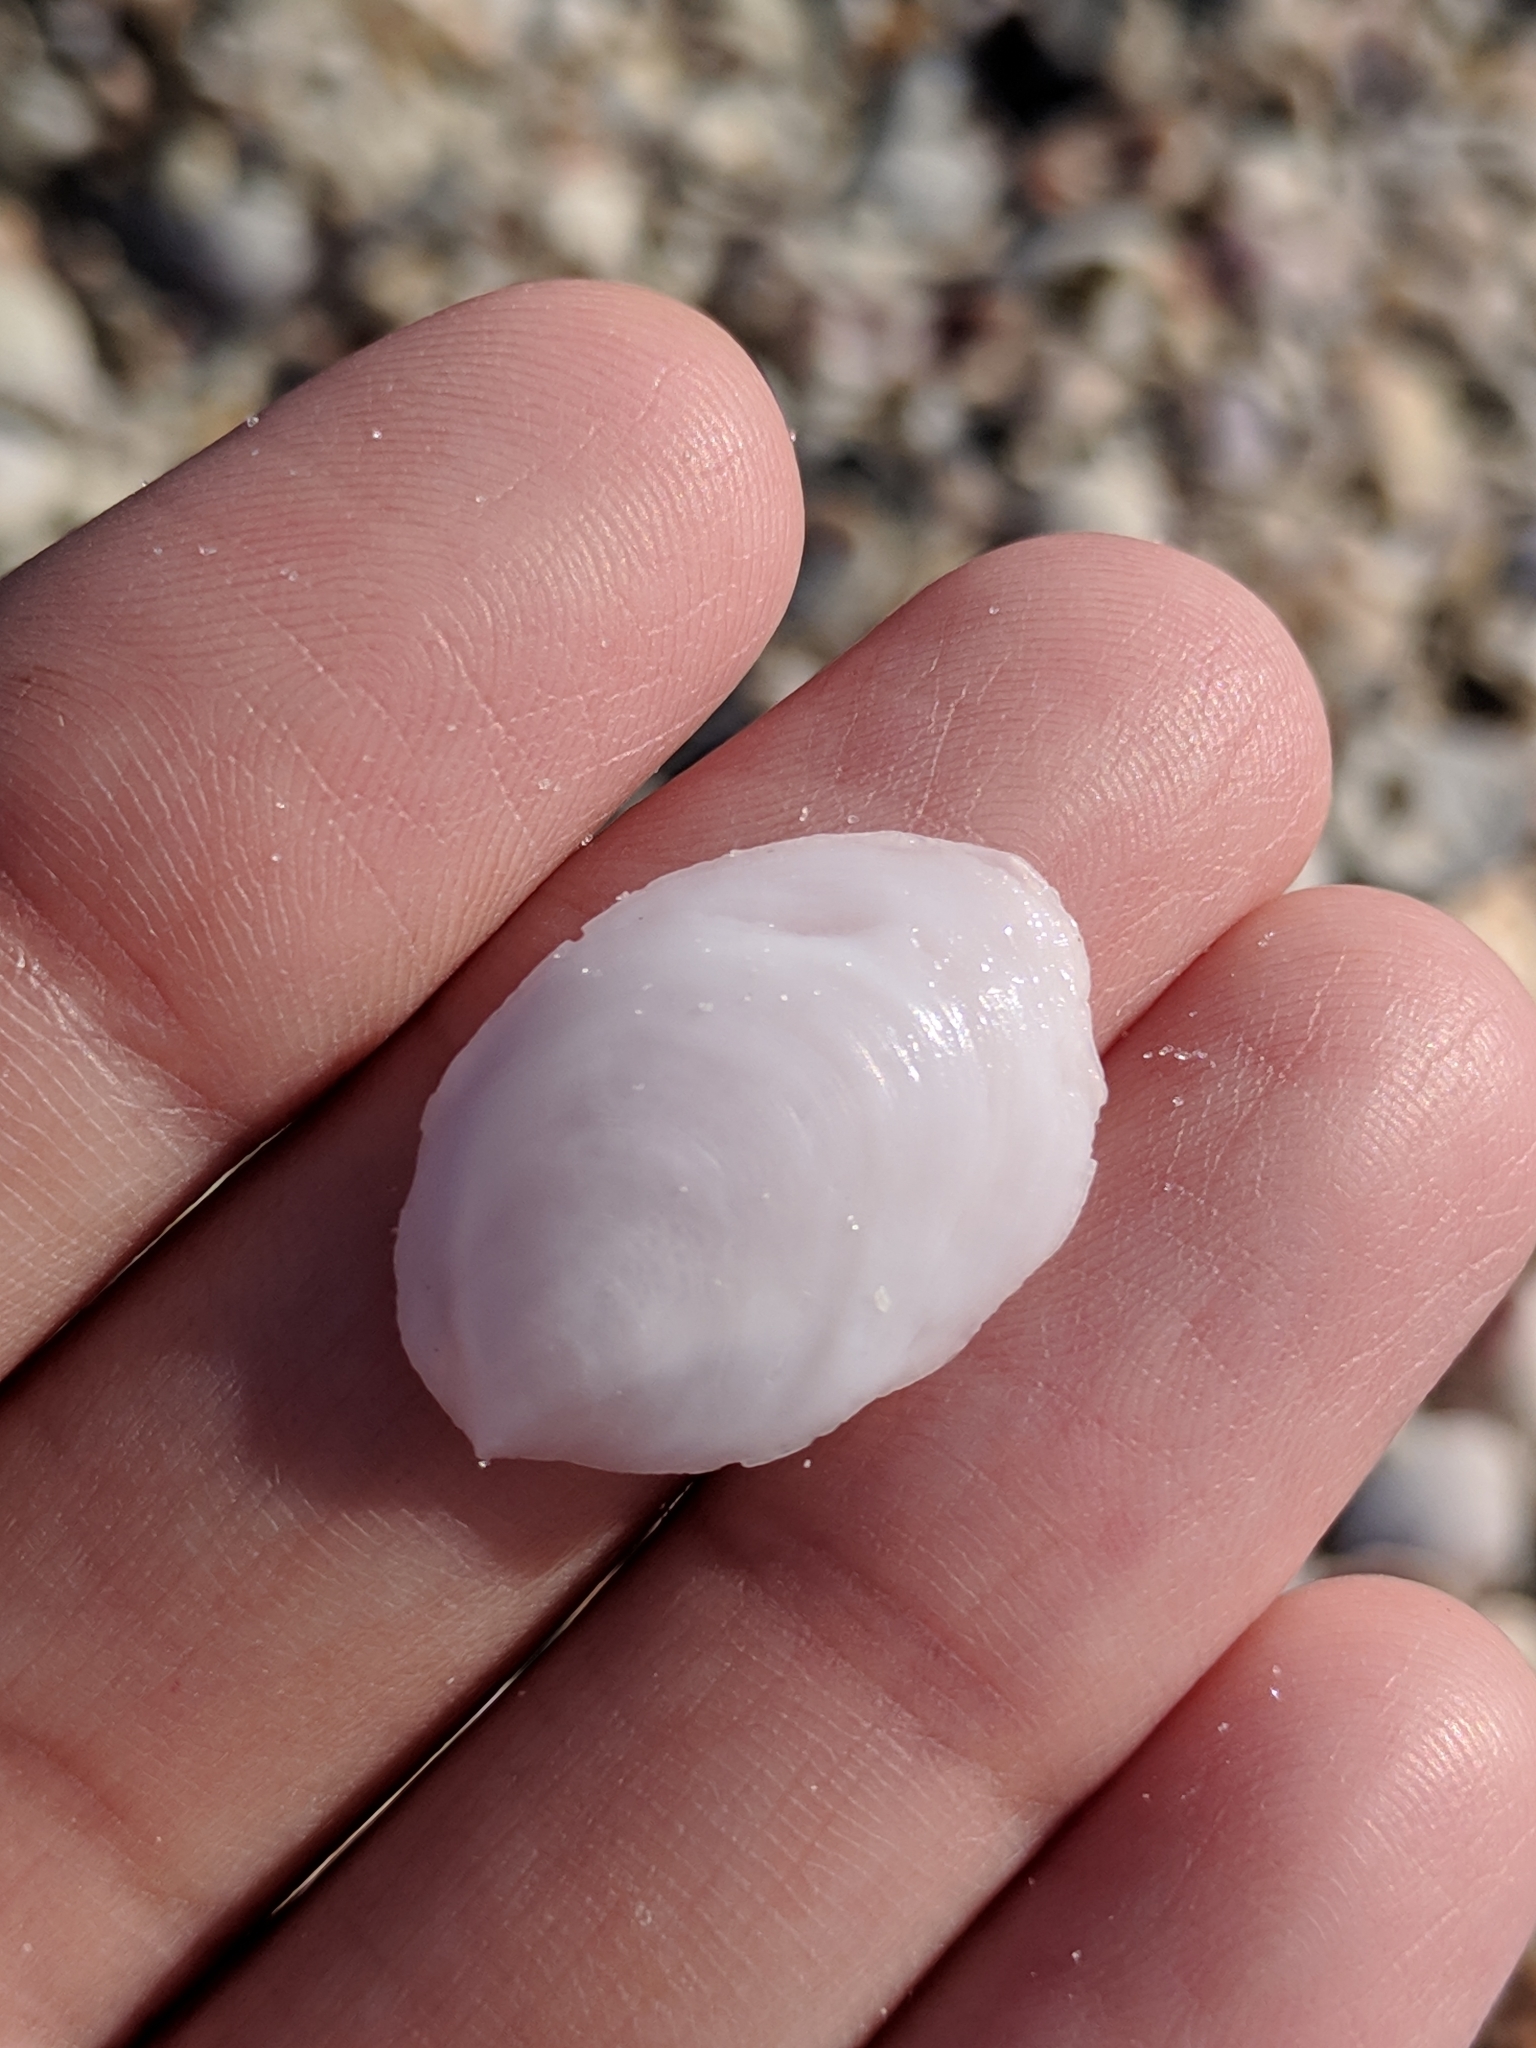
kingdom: Animalia
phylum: Mollusca
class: Gastropoda
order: Littorinimorpha
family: Calyptraeidae
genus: Crepidula
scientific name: Crepidula
